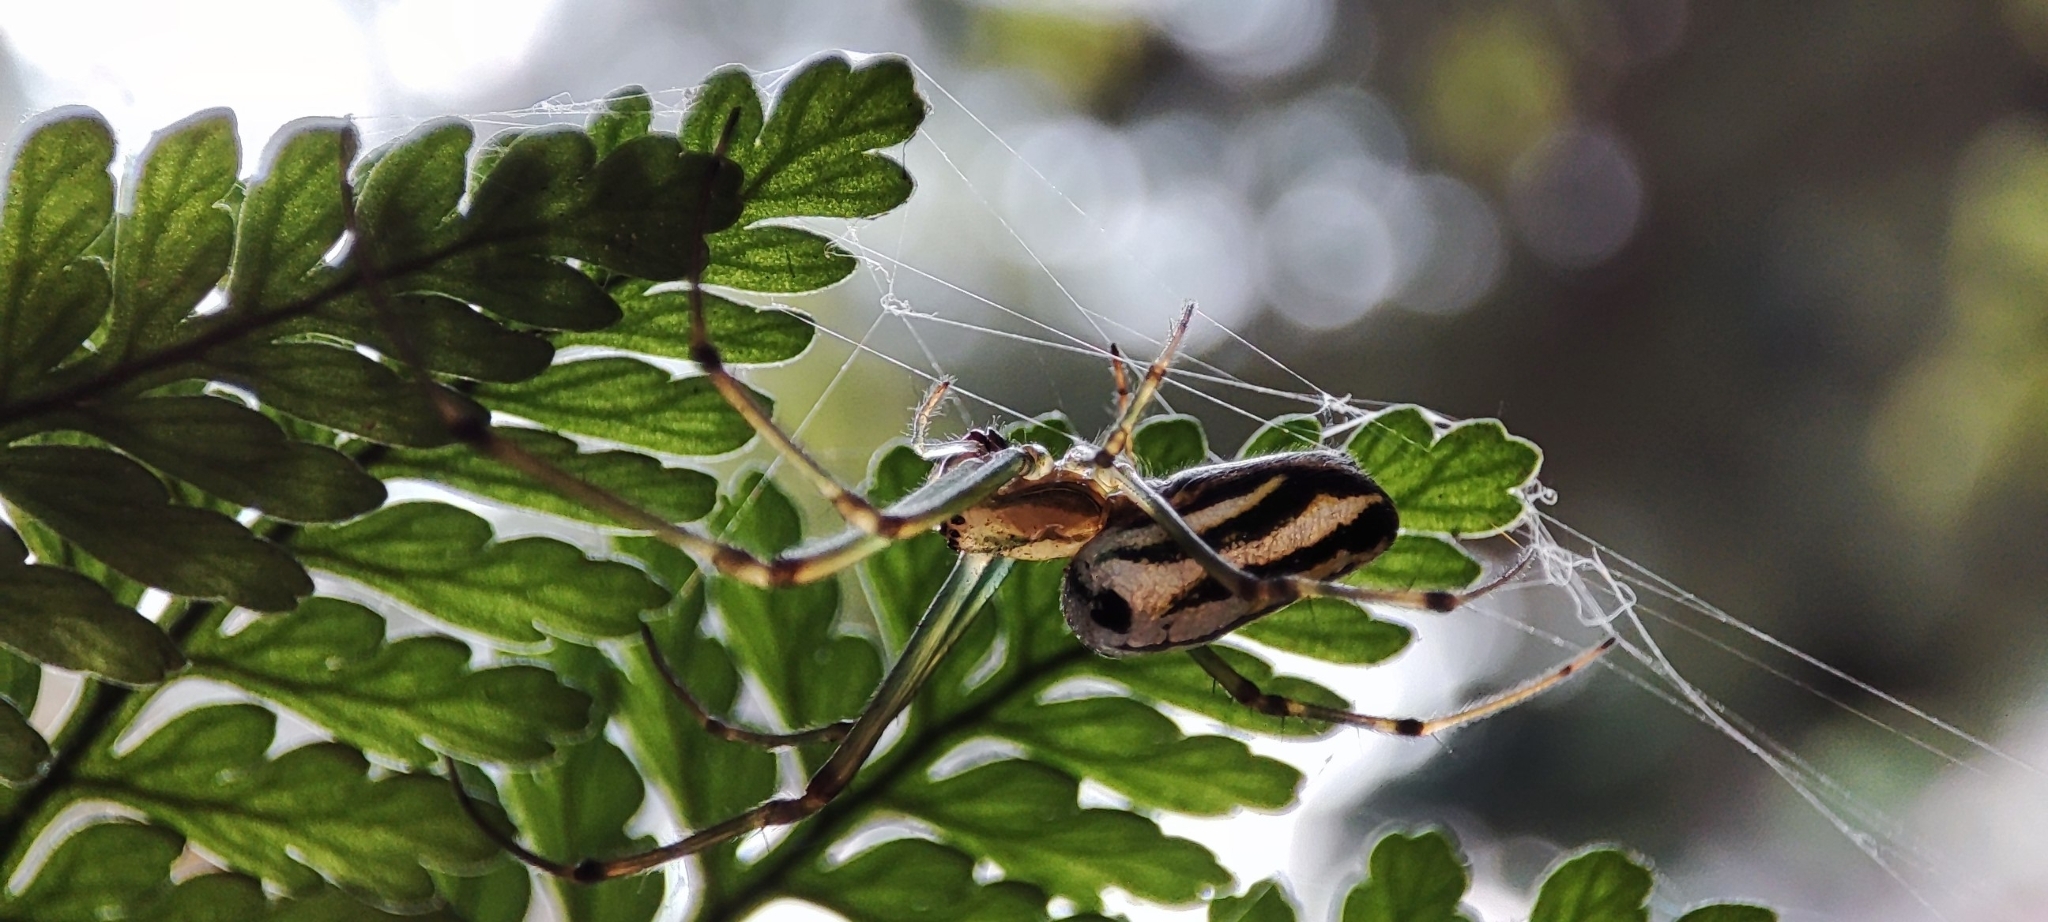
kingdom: Animalia
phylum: Arthropoda
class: Arachnida
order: Araneae
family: Tetragnathidae
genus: Leucauge
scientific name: Leucauge blanda
